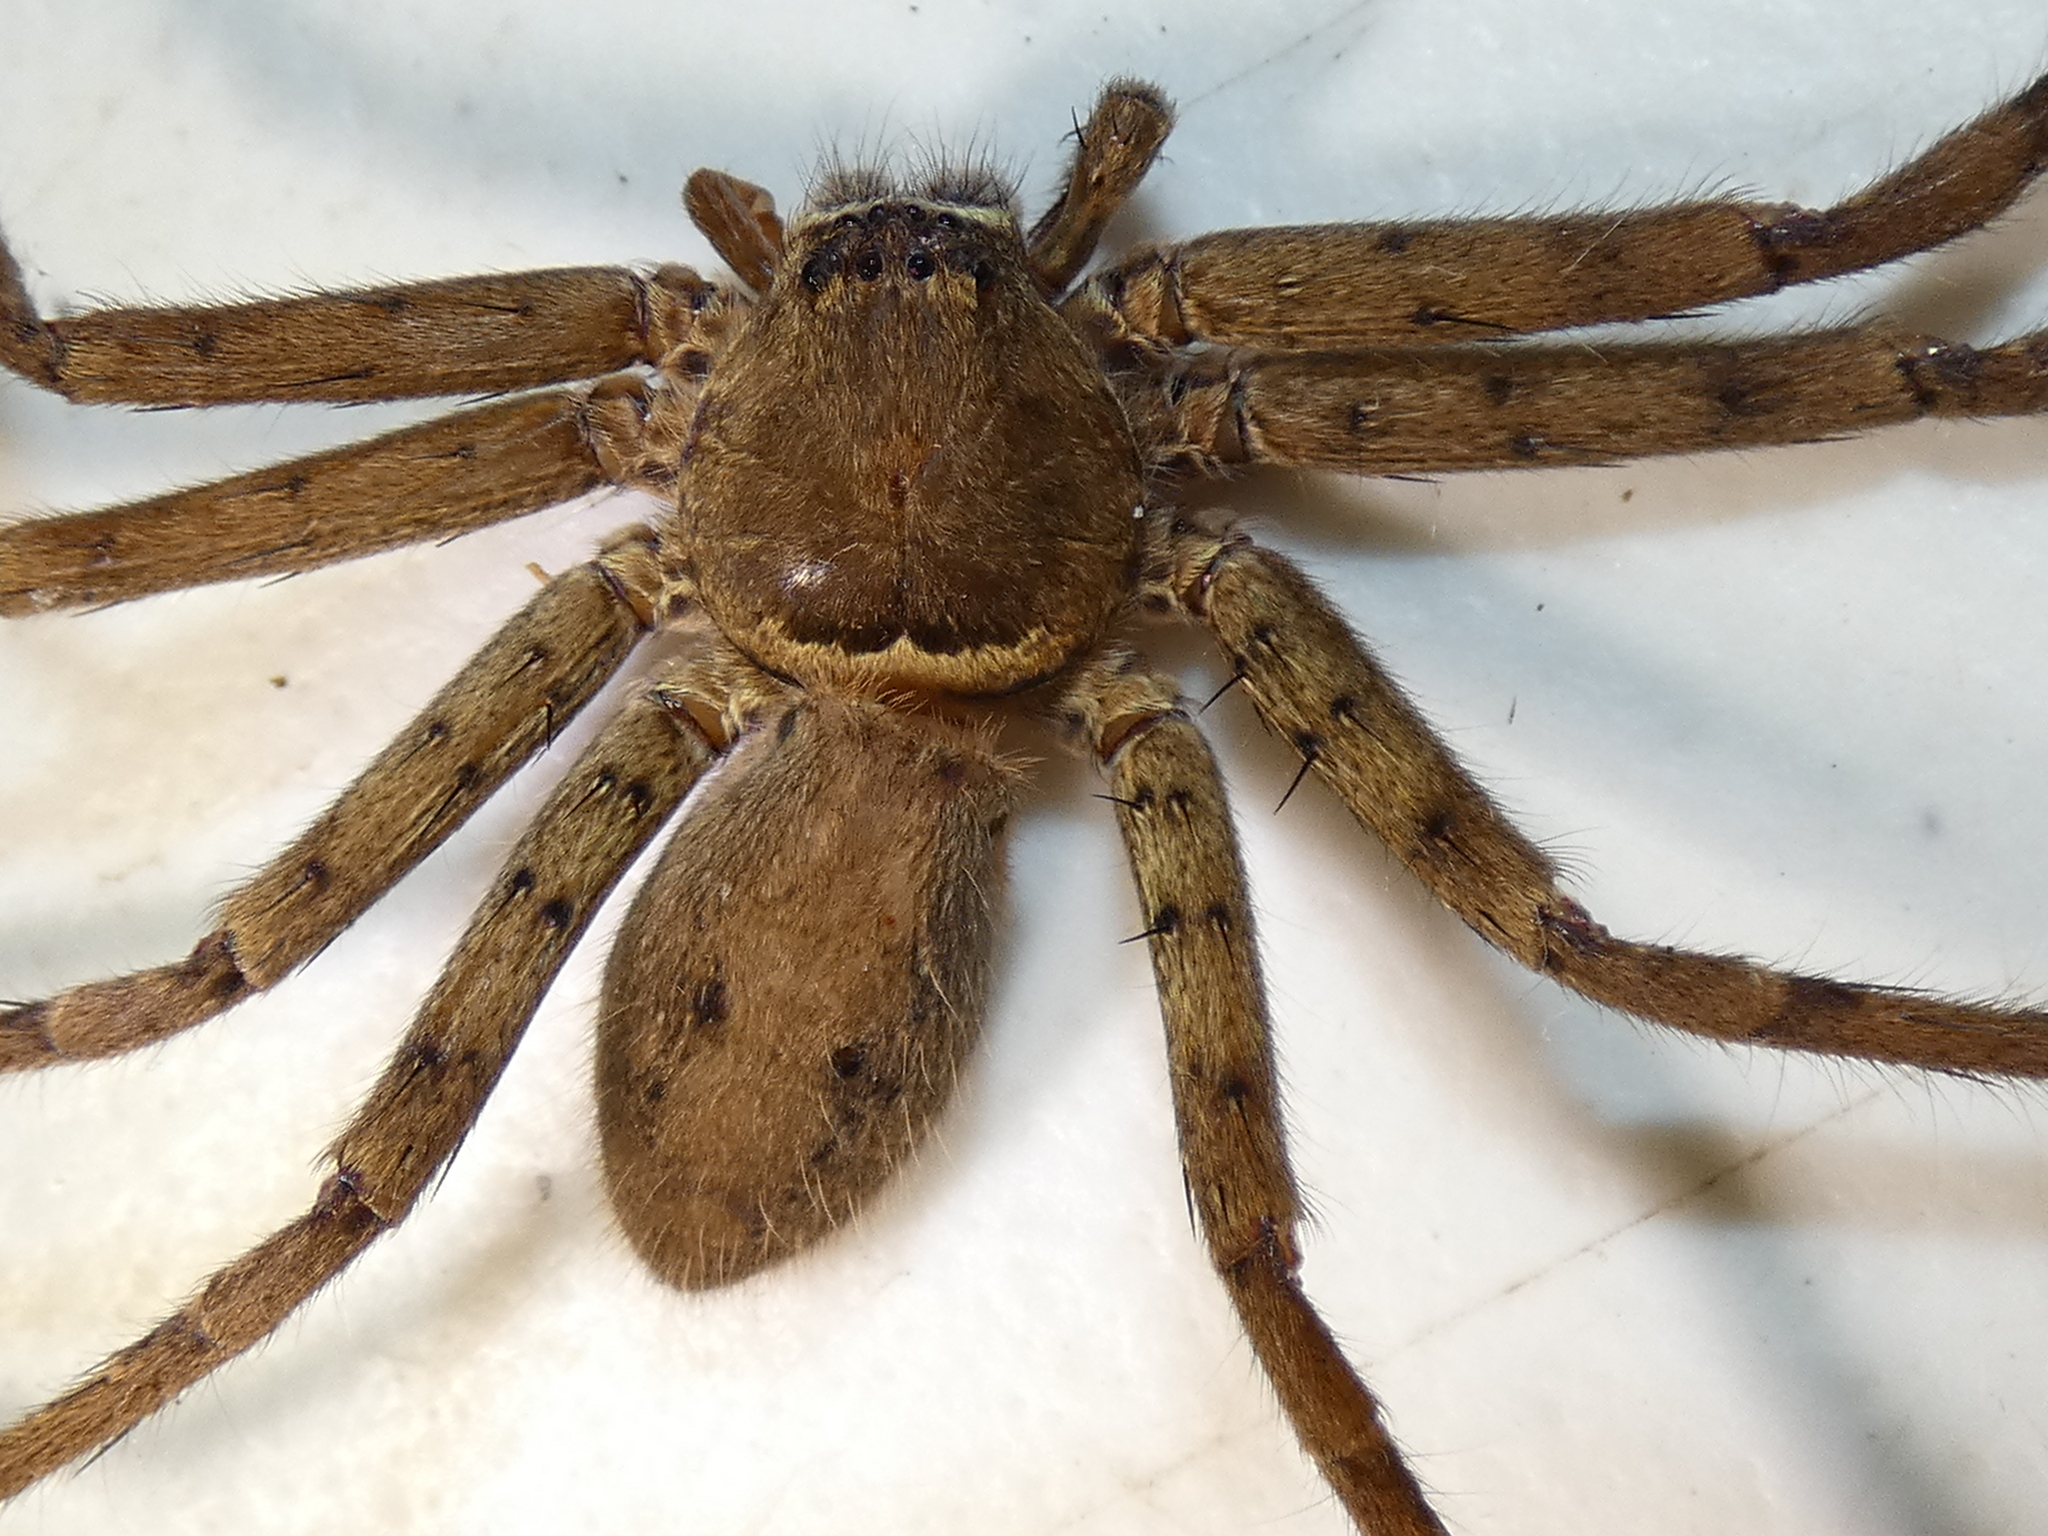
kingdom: Animalia
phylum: Arthropoda
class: Arachnida
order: Araneae
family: Sparassidae
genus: Heteropoda
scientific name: Heteropoda venatoria
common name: Huntsman spider
